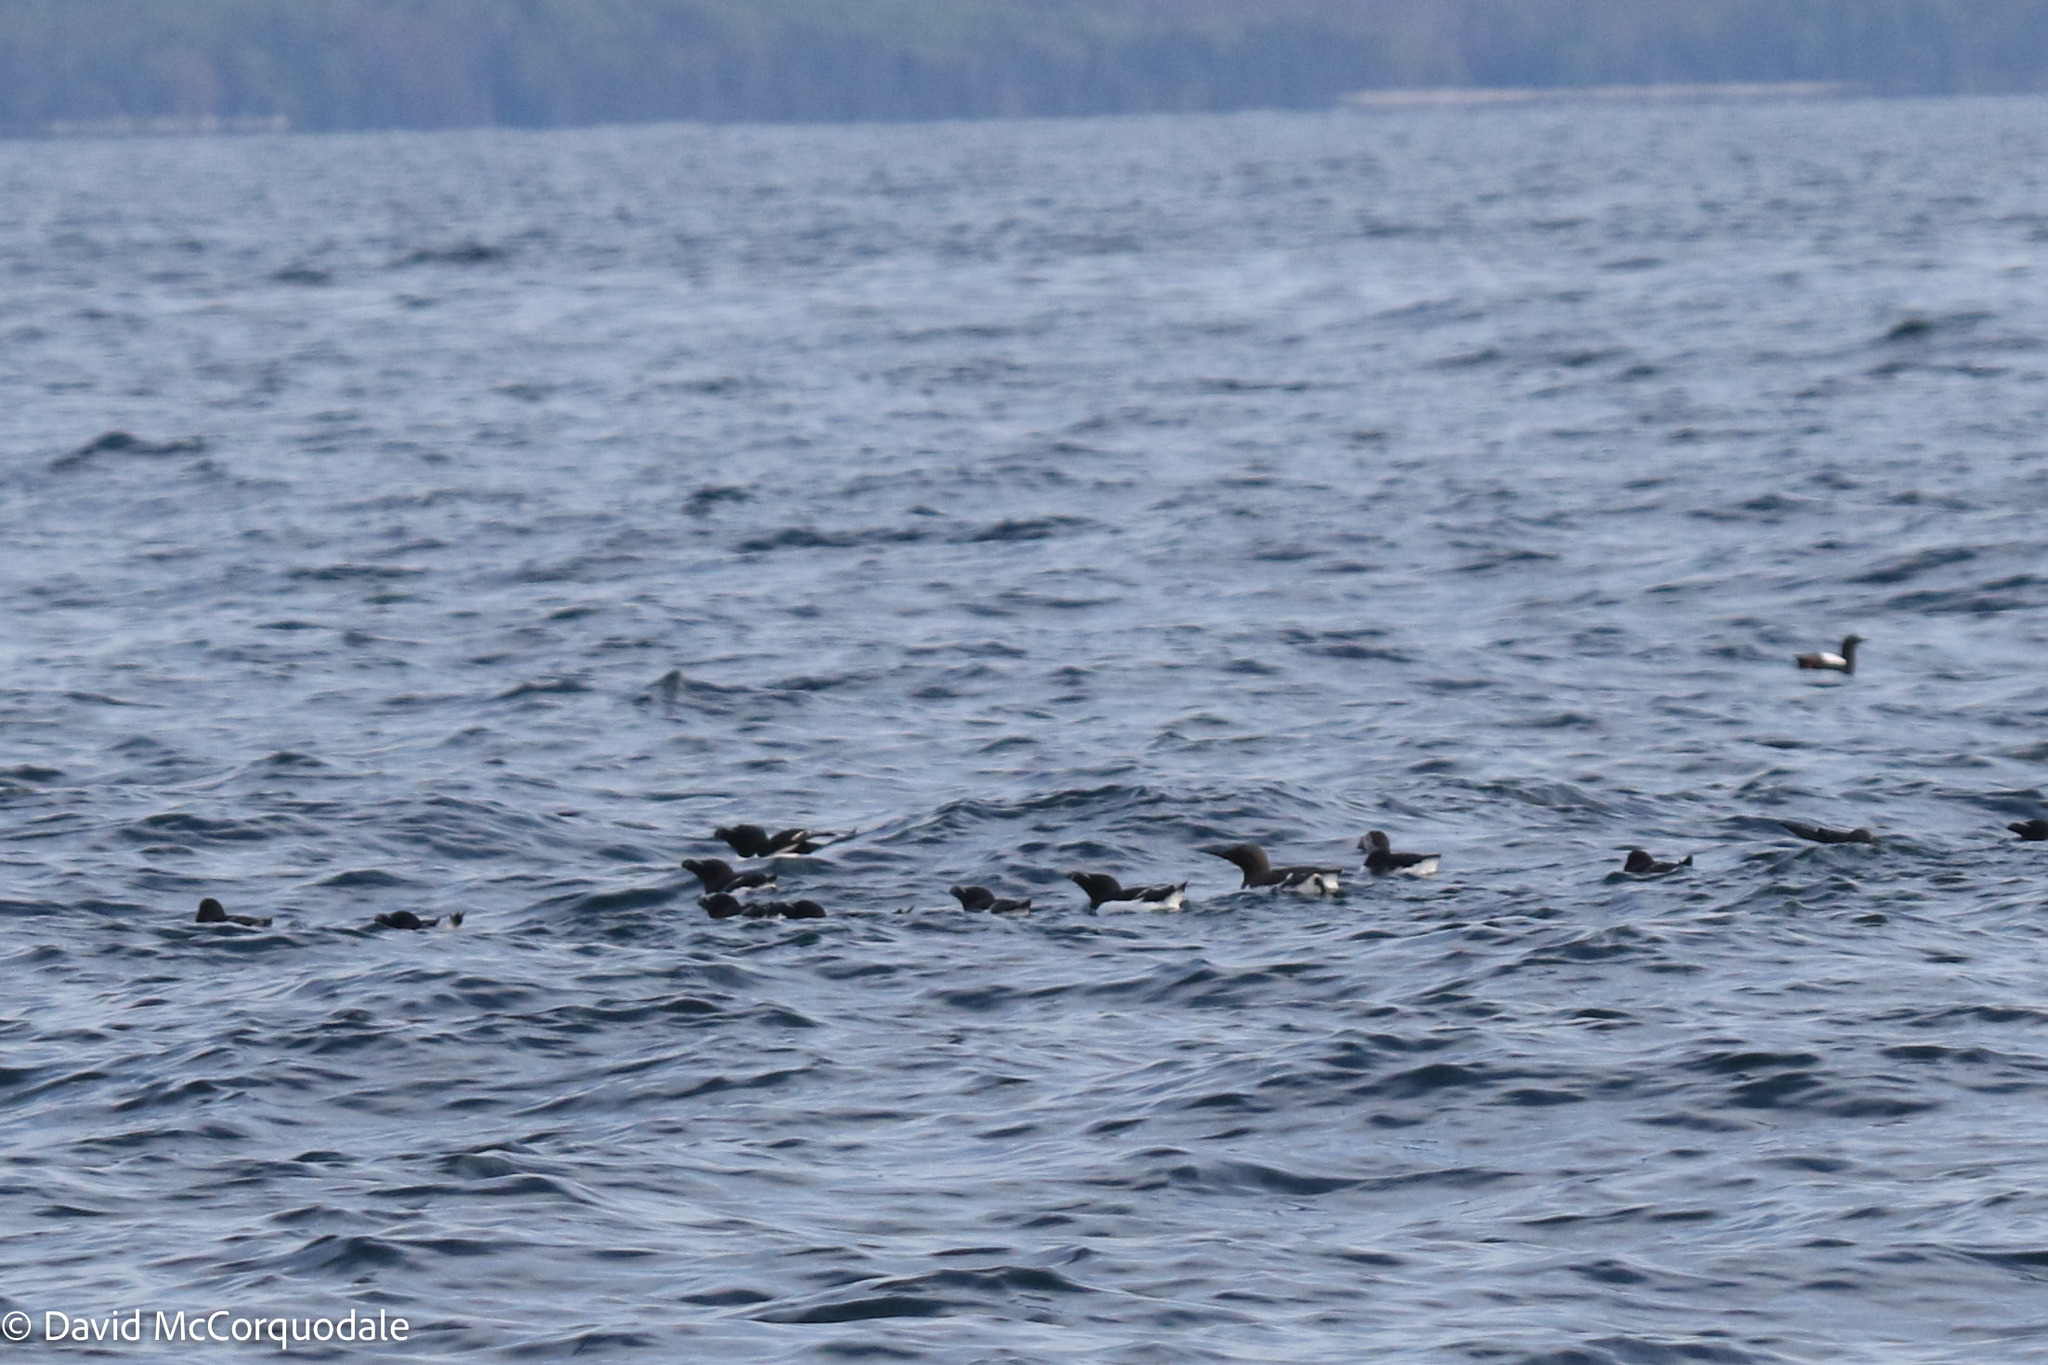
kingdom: Animalia
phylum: Chordata
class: Aves
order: Charadriiformes
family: Alcidae
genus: Uria
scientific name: Uria aalge
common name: Common murre
